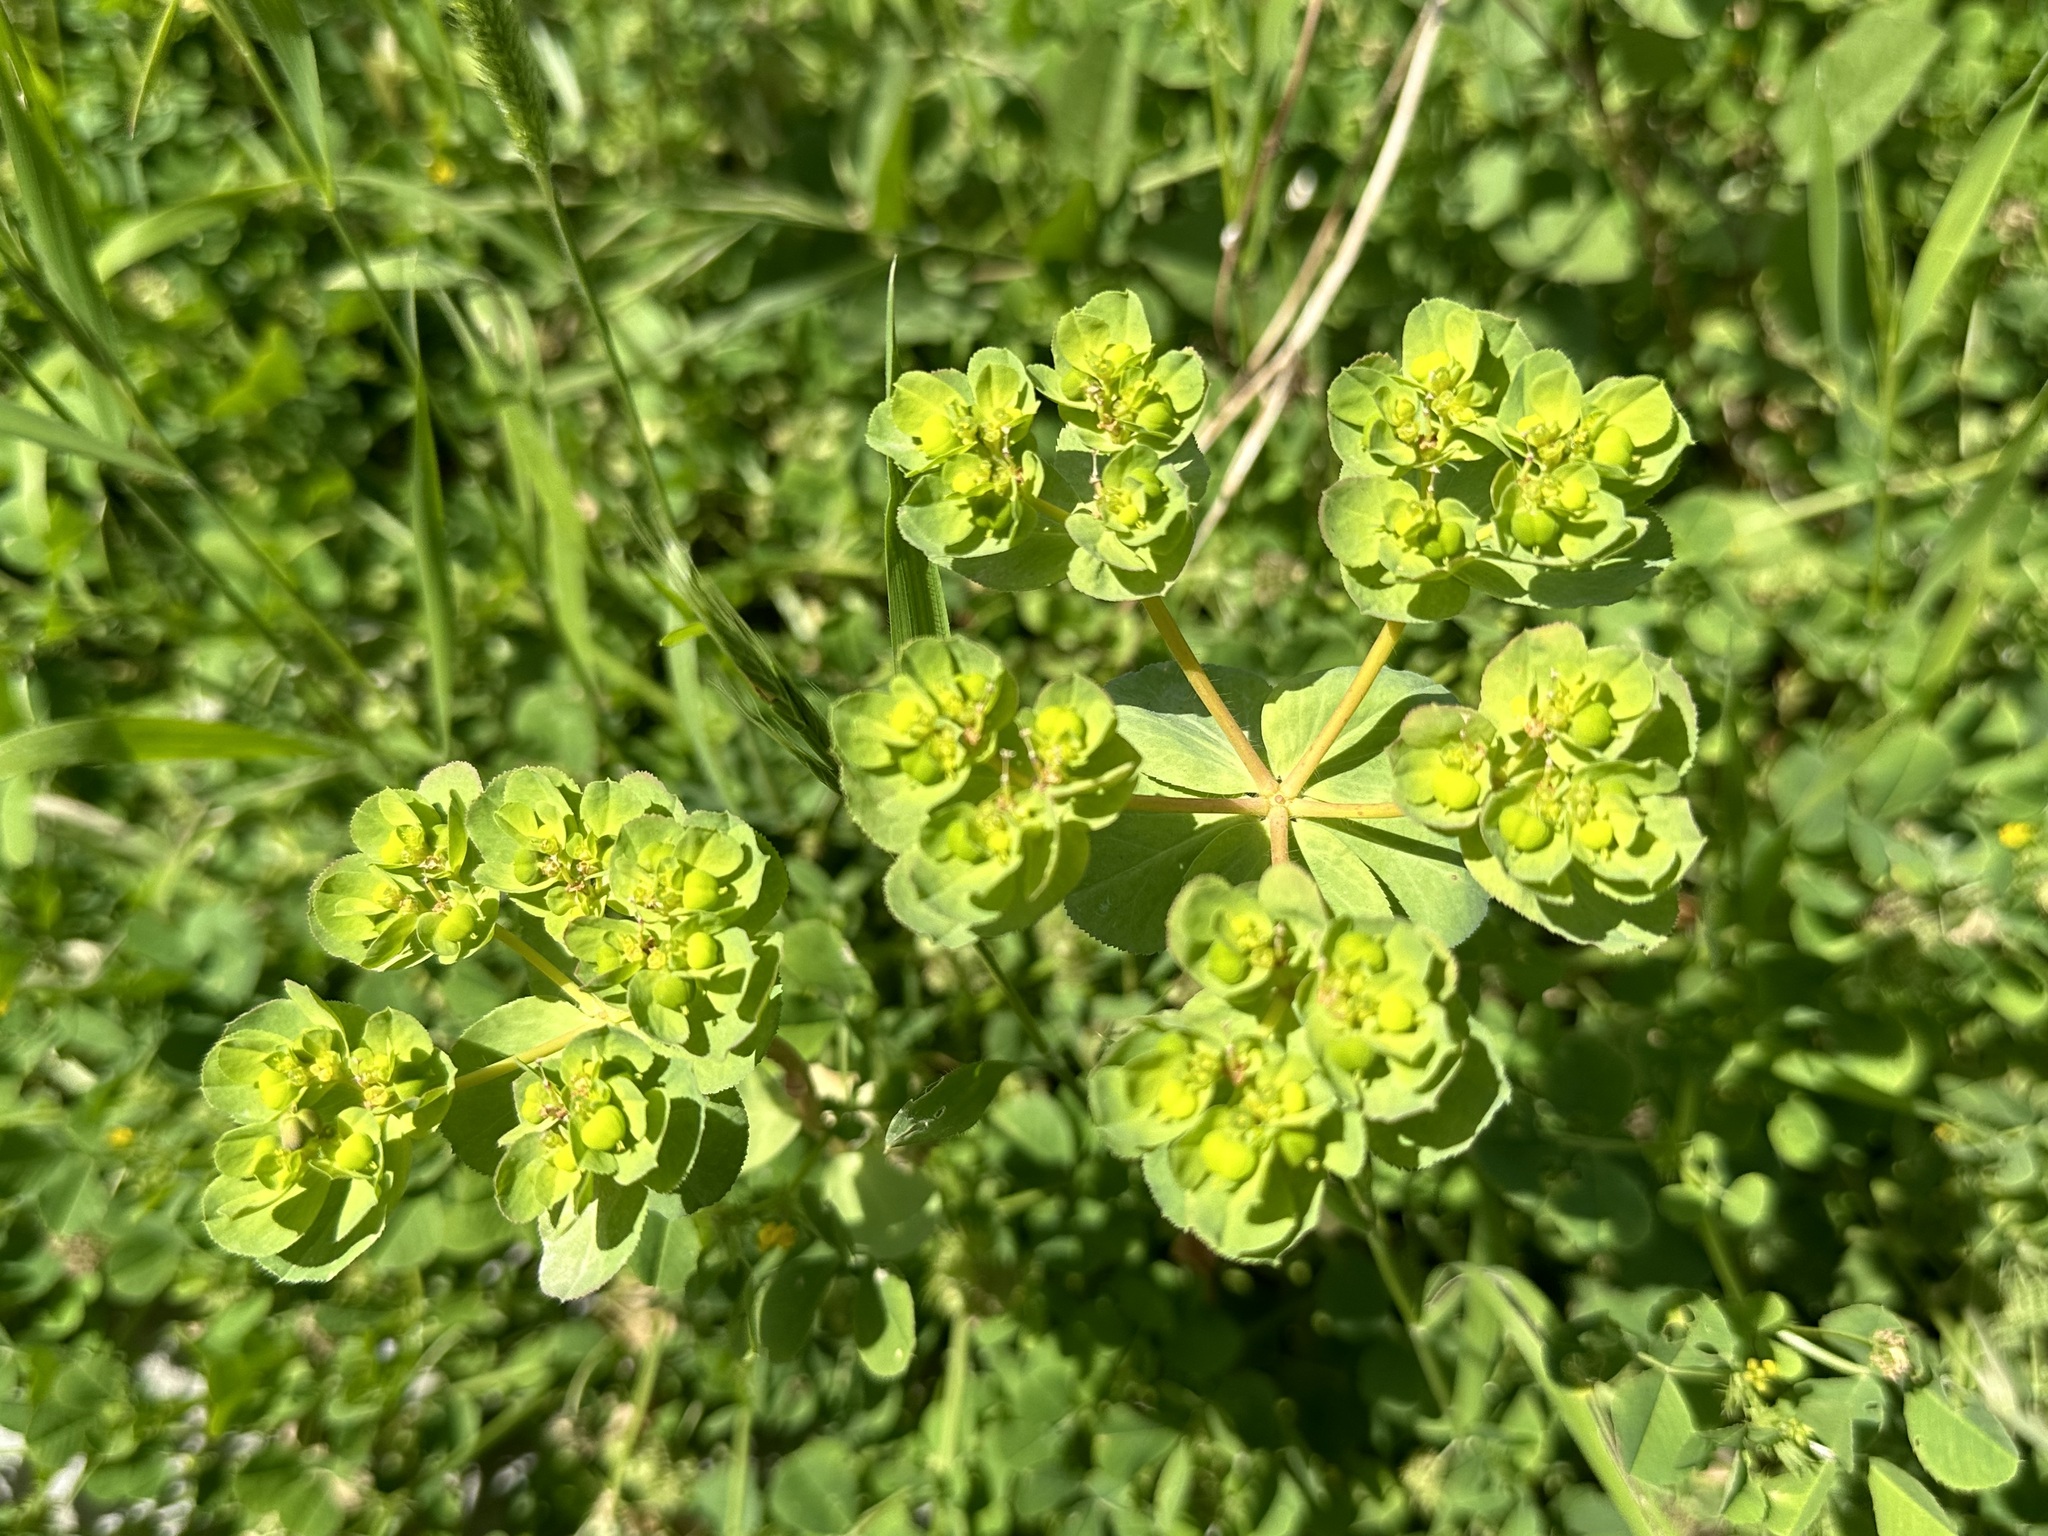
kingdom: Plantae
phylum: Tracheophyta
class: Magnoliopsida
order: Malpighiales
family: Euphorbiaceae
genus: Euphorbia
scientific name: Euphorbia helioscopia
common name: Sun spurge
